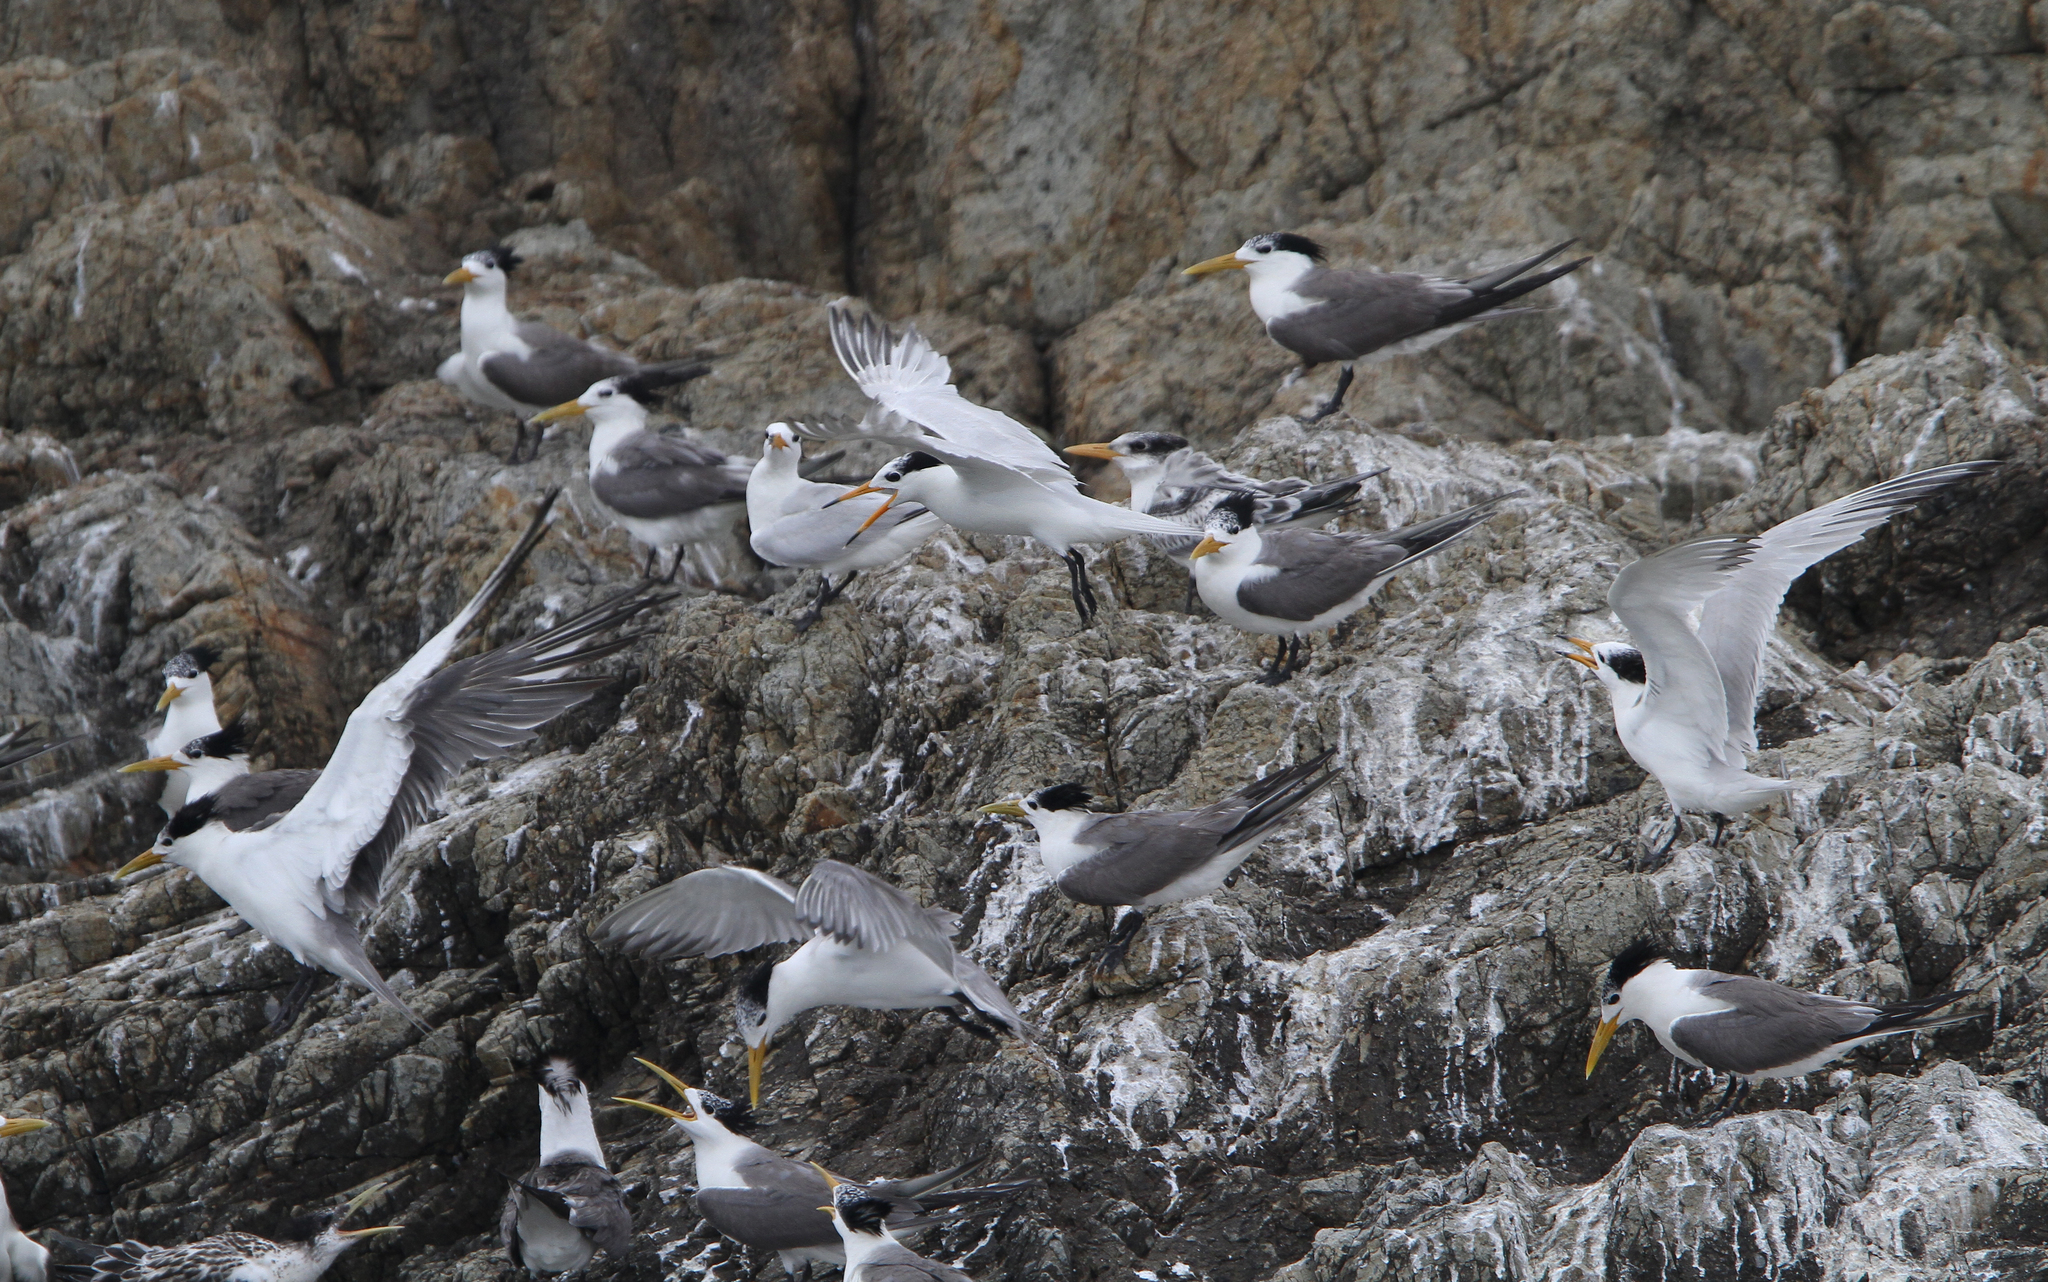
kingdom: Animalia
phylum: Chordata
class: Aves
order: Charadriiformes
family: Laridae
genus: Thalasseus
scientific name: Thalasseus bernsteini
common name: Chinese crested tern
